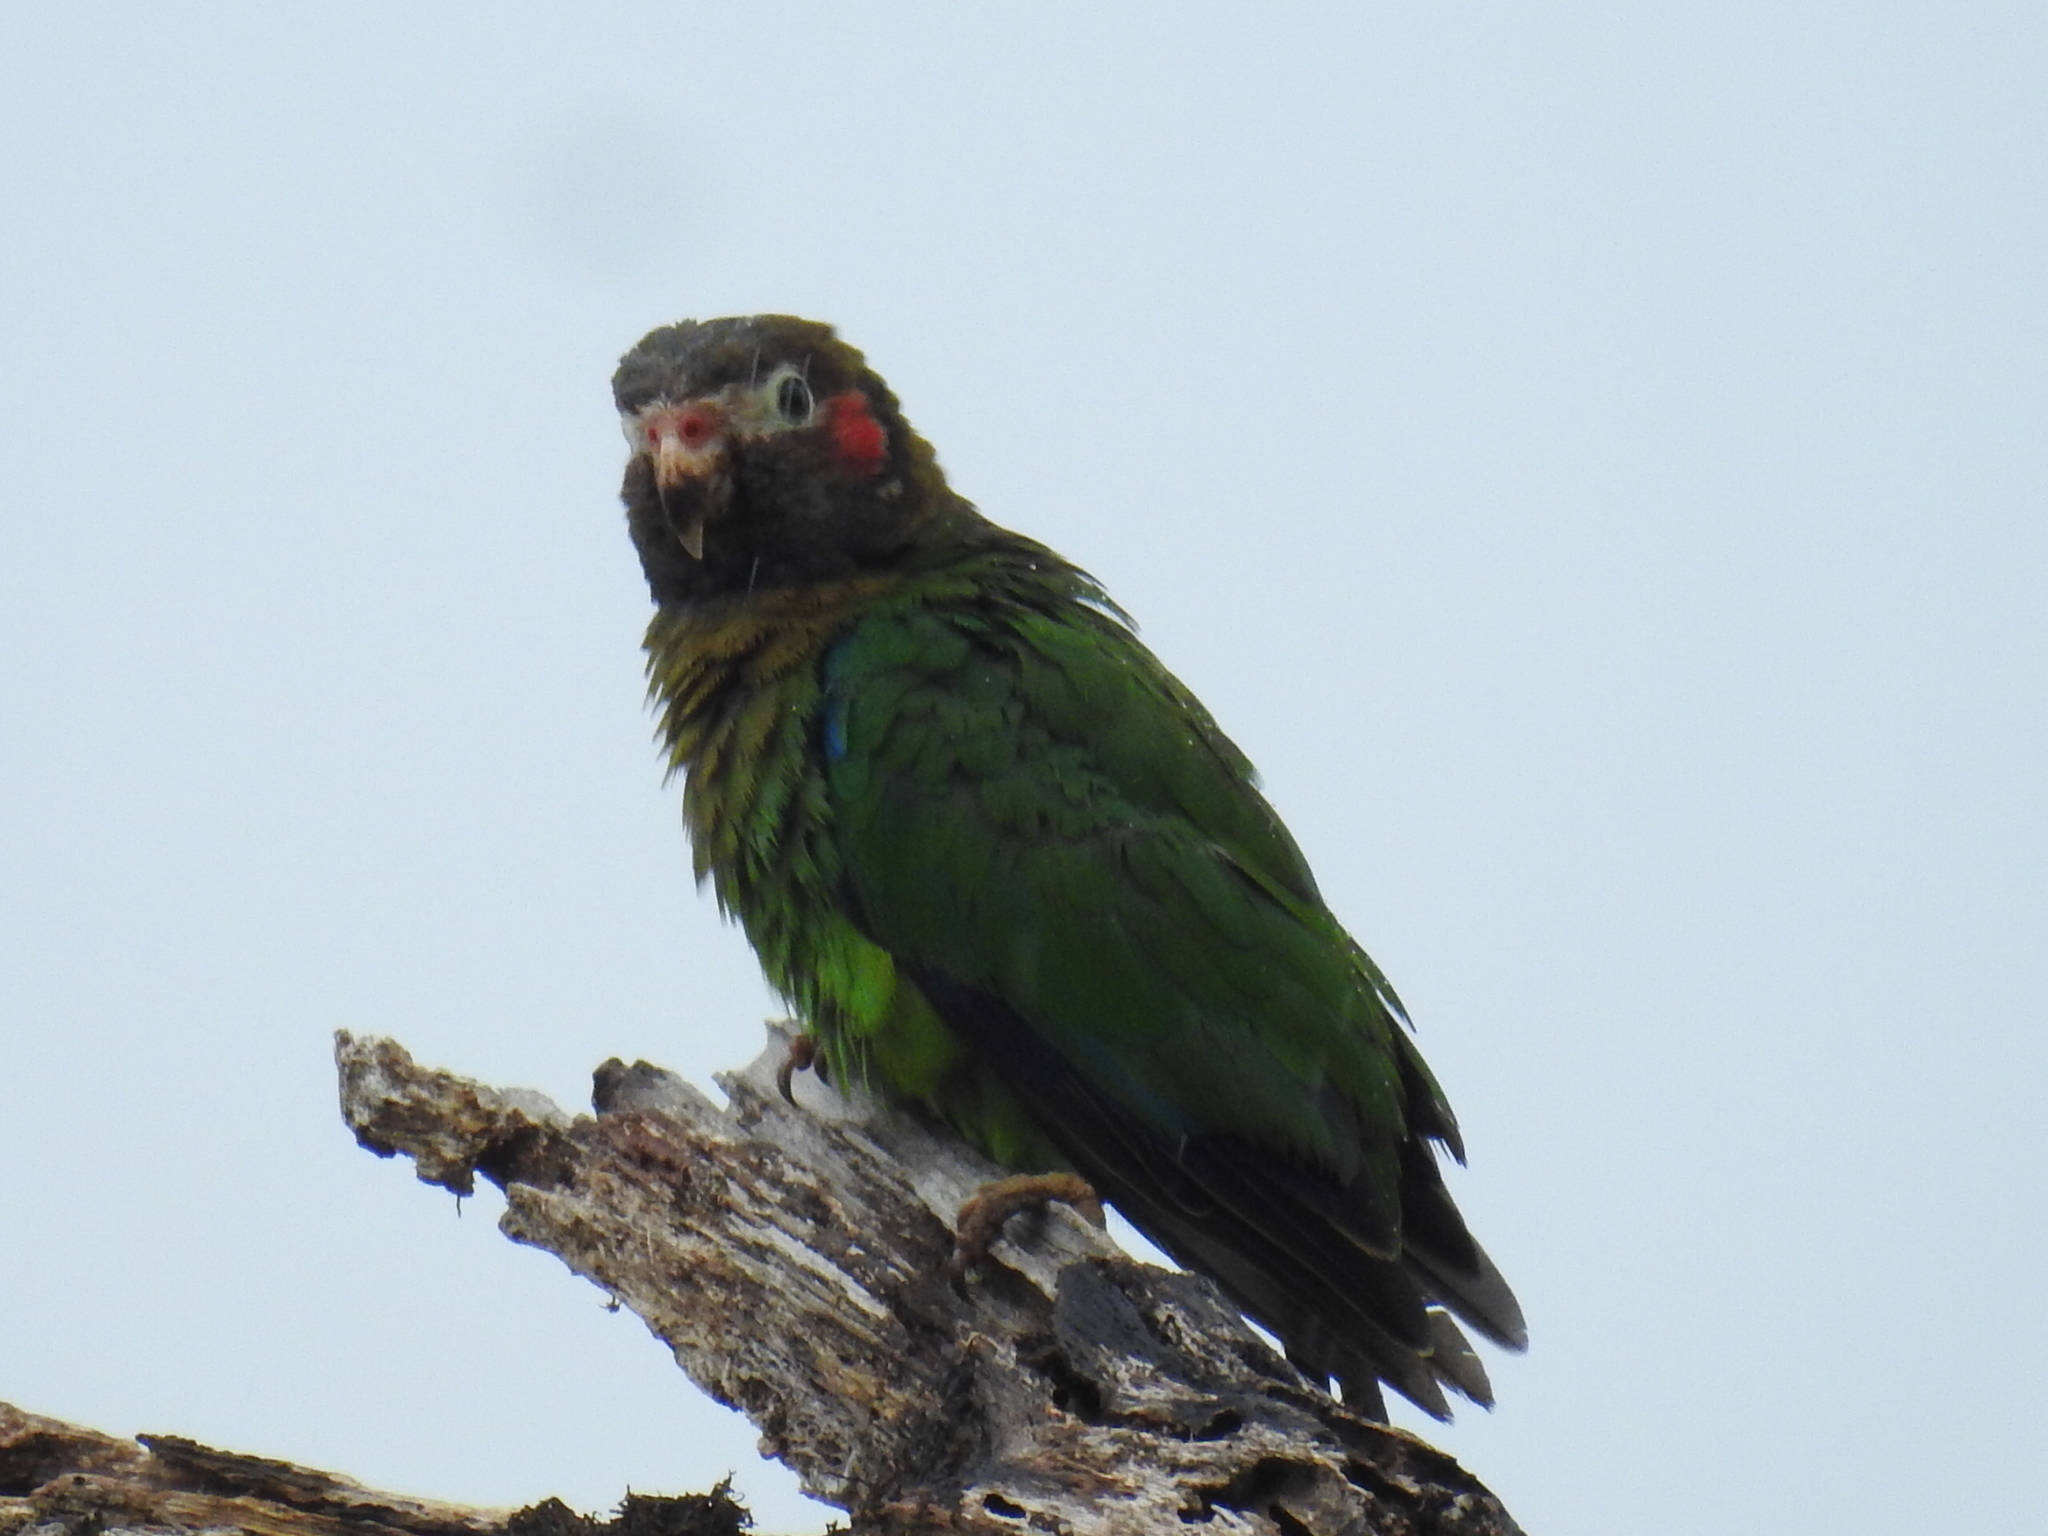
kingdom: Animalia
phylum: Chordata
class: Aves
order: Psittaciformes
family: Psittacidae
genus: Pionopsitta
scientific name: Pionopsitta haematotis
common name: Brown-hooded parrot
